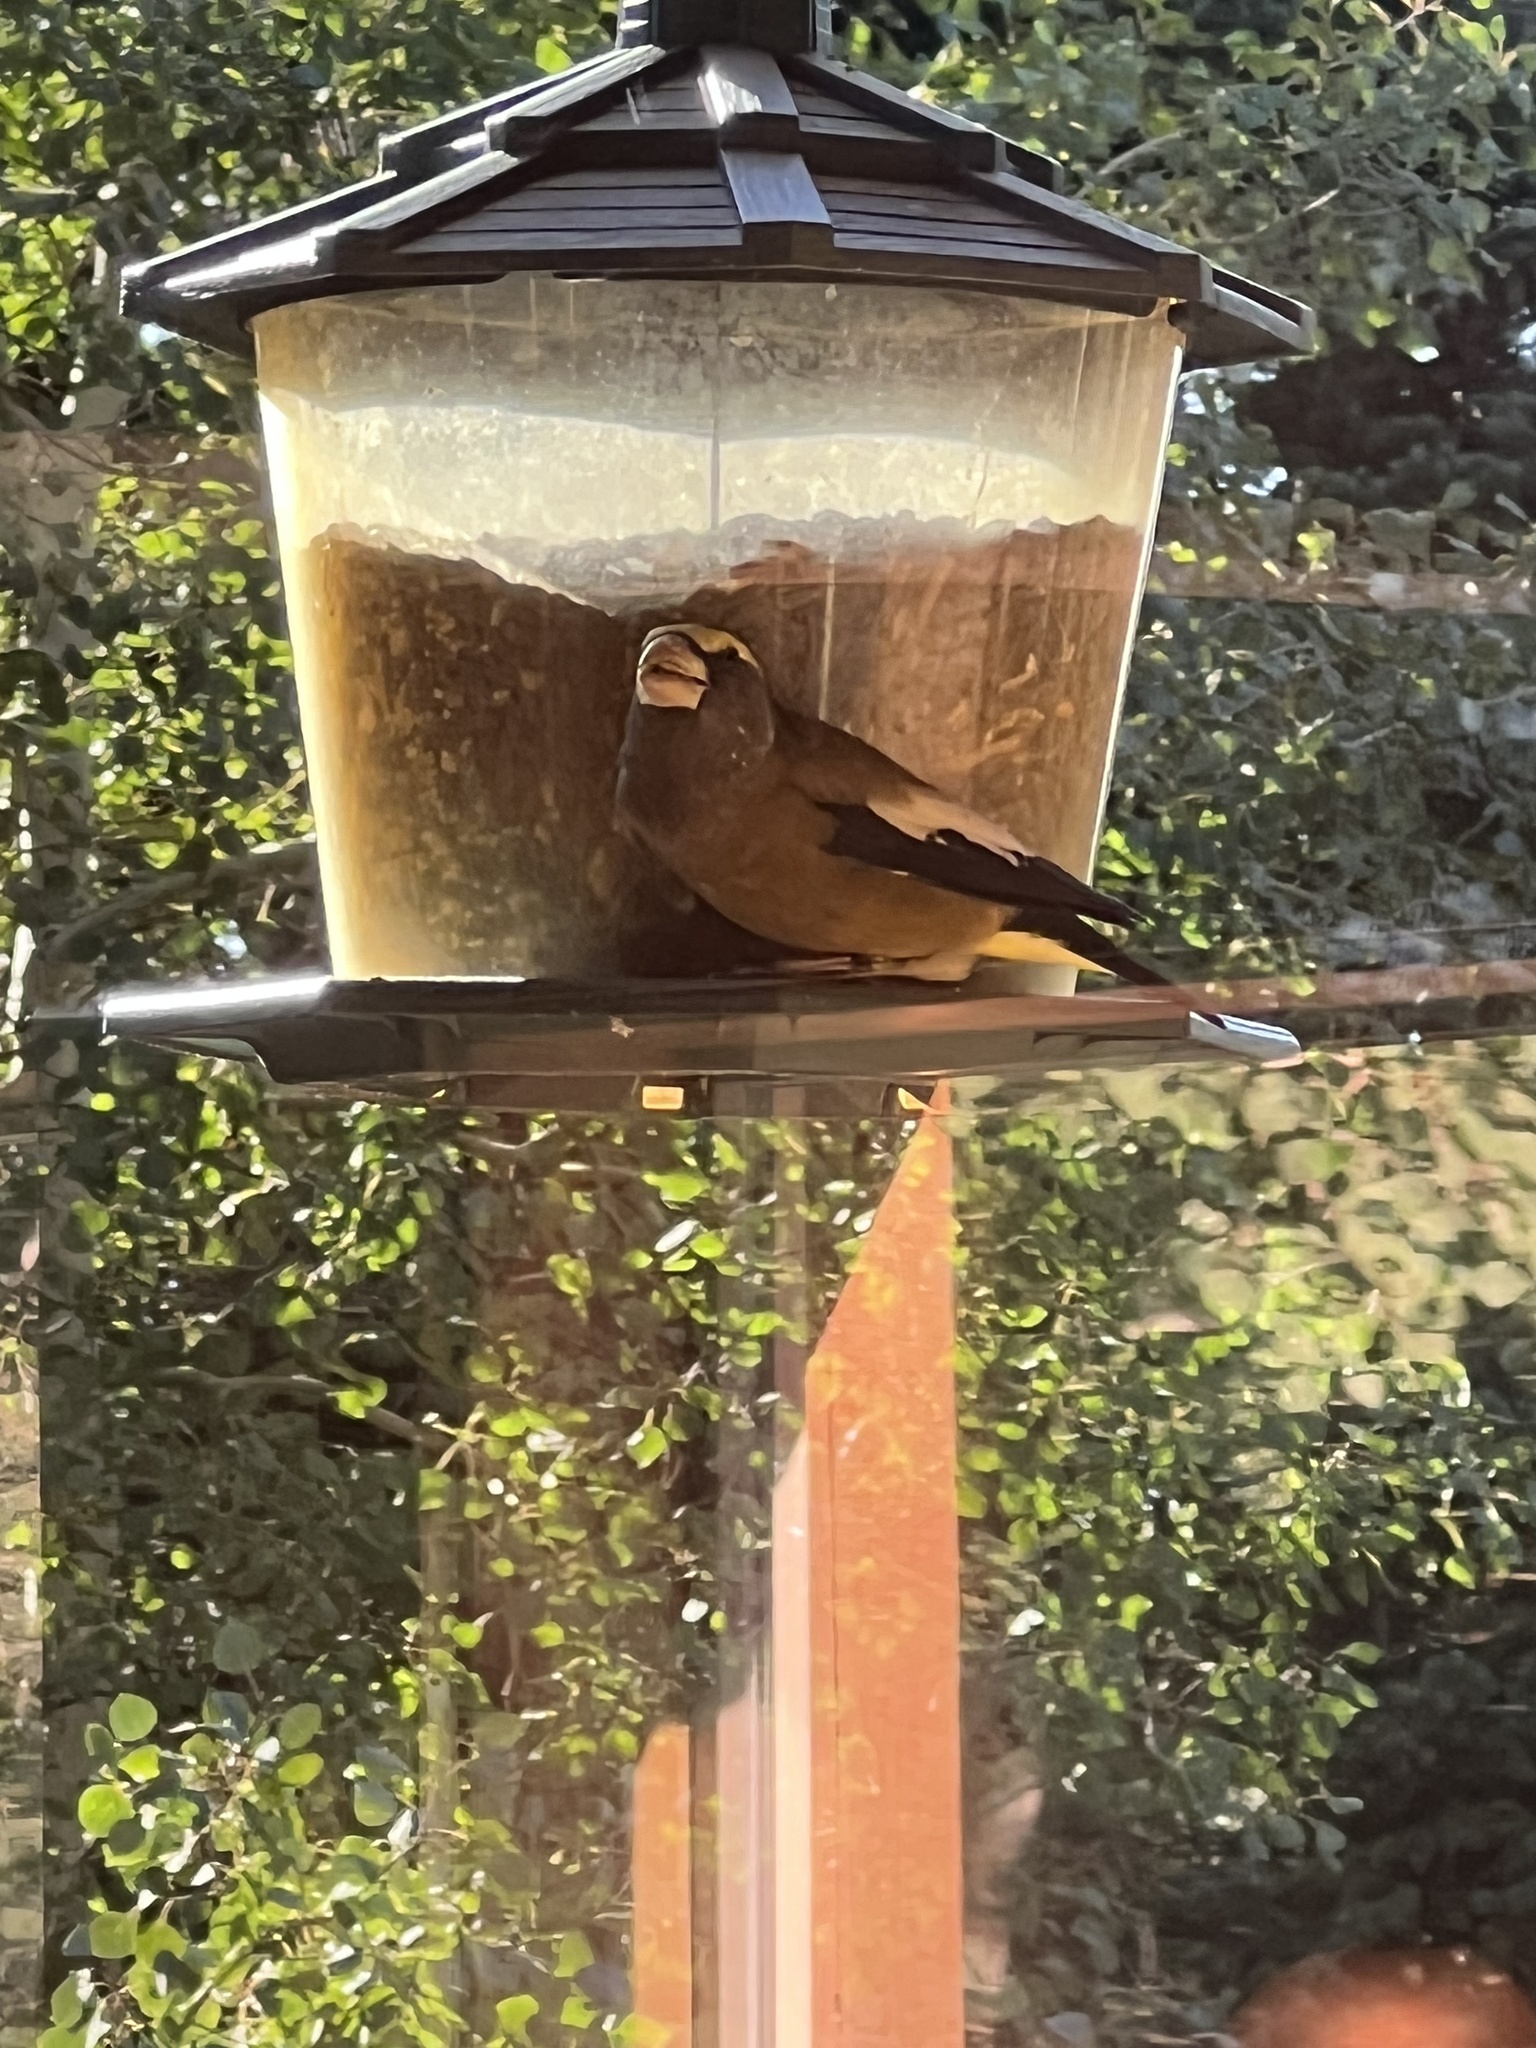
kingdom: Animalia
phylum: Chordata
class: Aves
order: Passeriformes
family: Fringillidae
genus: Hesperiphona
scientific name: Hesperiphona vespertina
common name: Evening grosbeak
